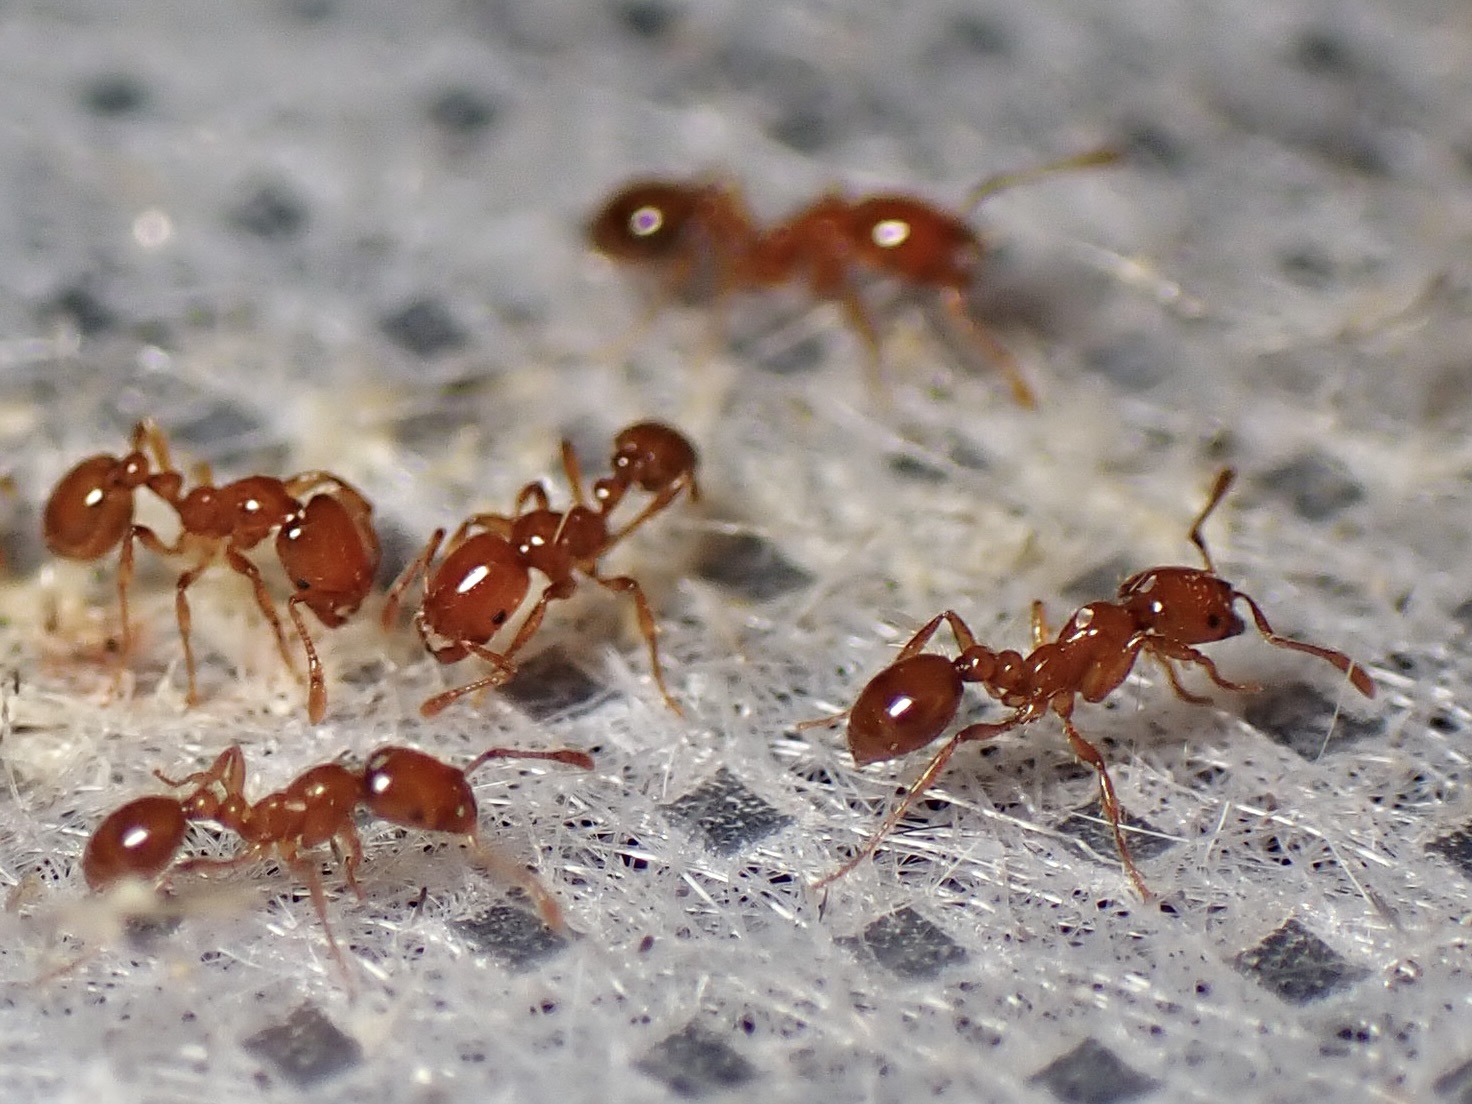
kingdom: Animalia
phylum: Arthropoda
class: Insecta
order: Hymenoptera
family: Formicidae
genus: Solenopsis
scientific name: Solenopsis amblychila
